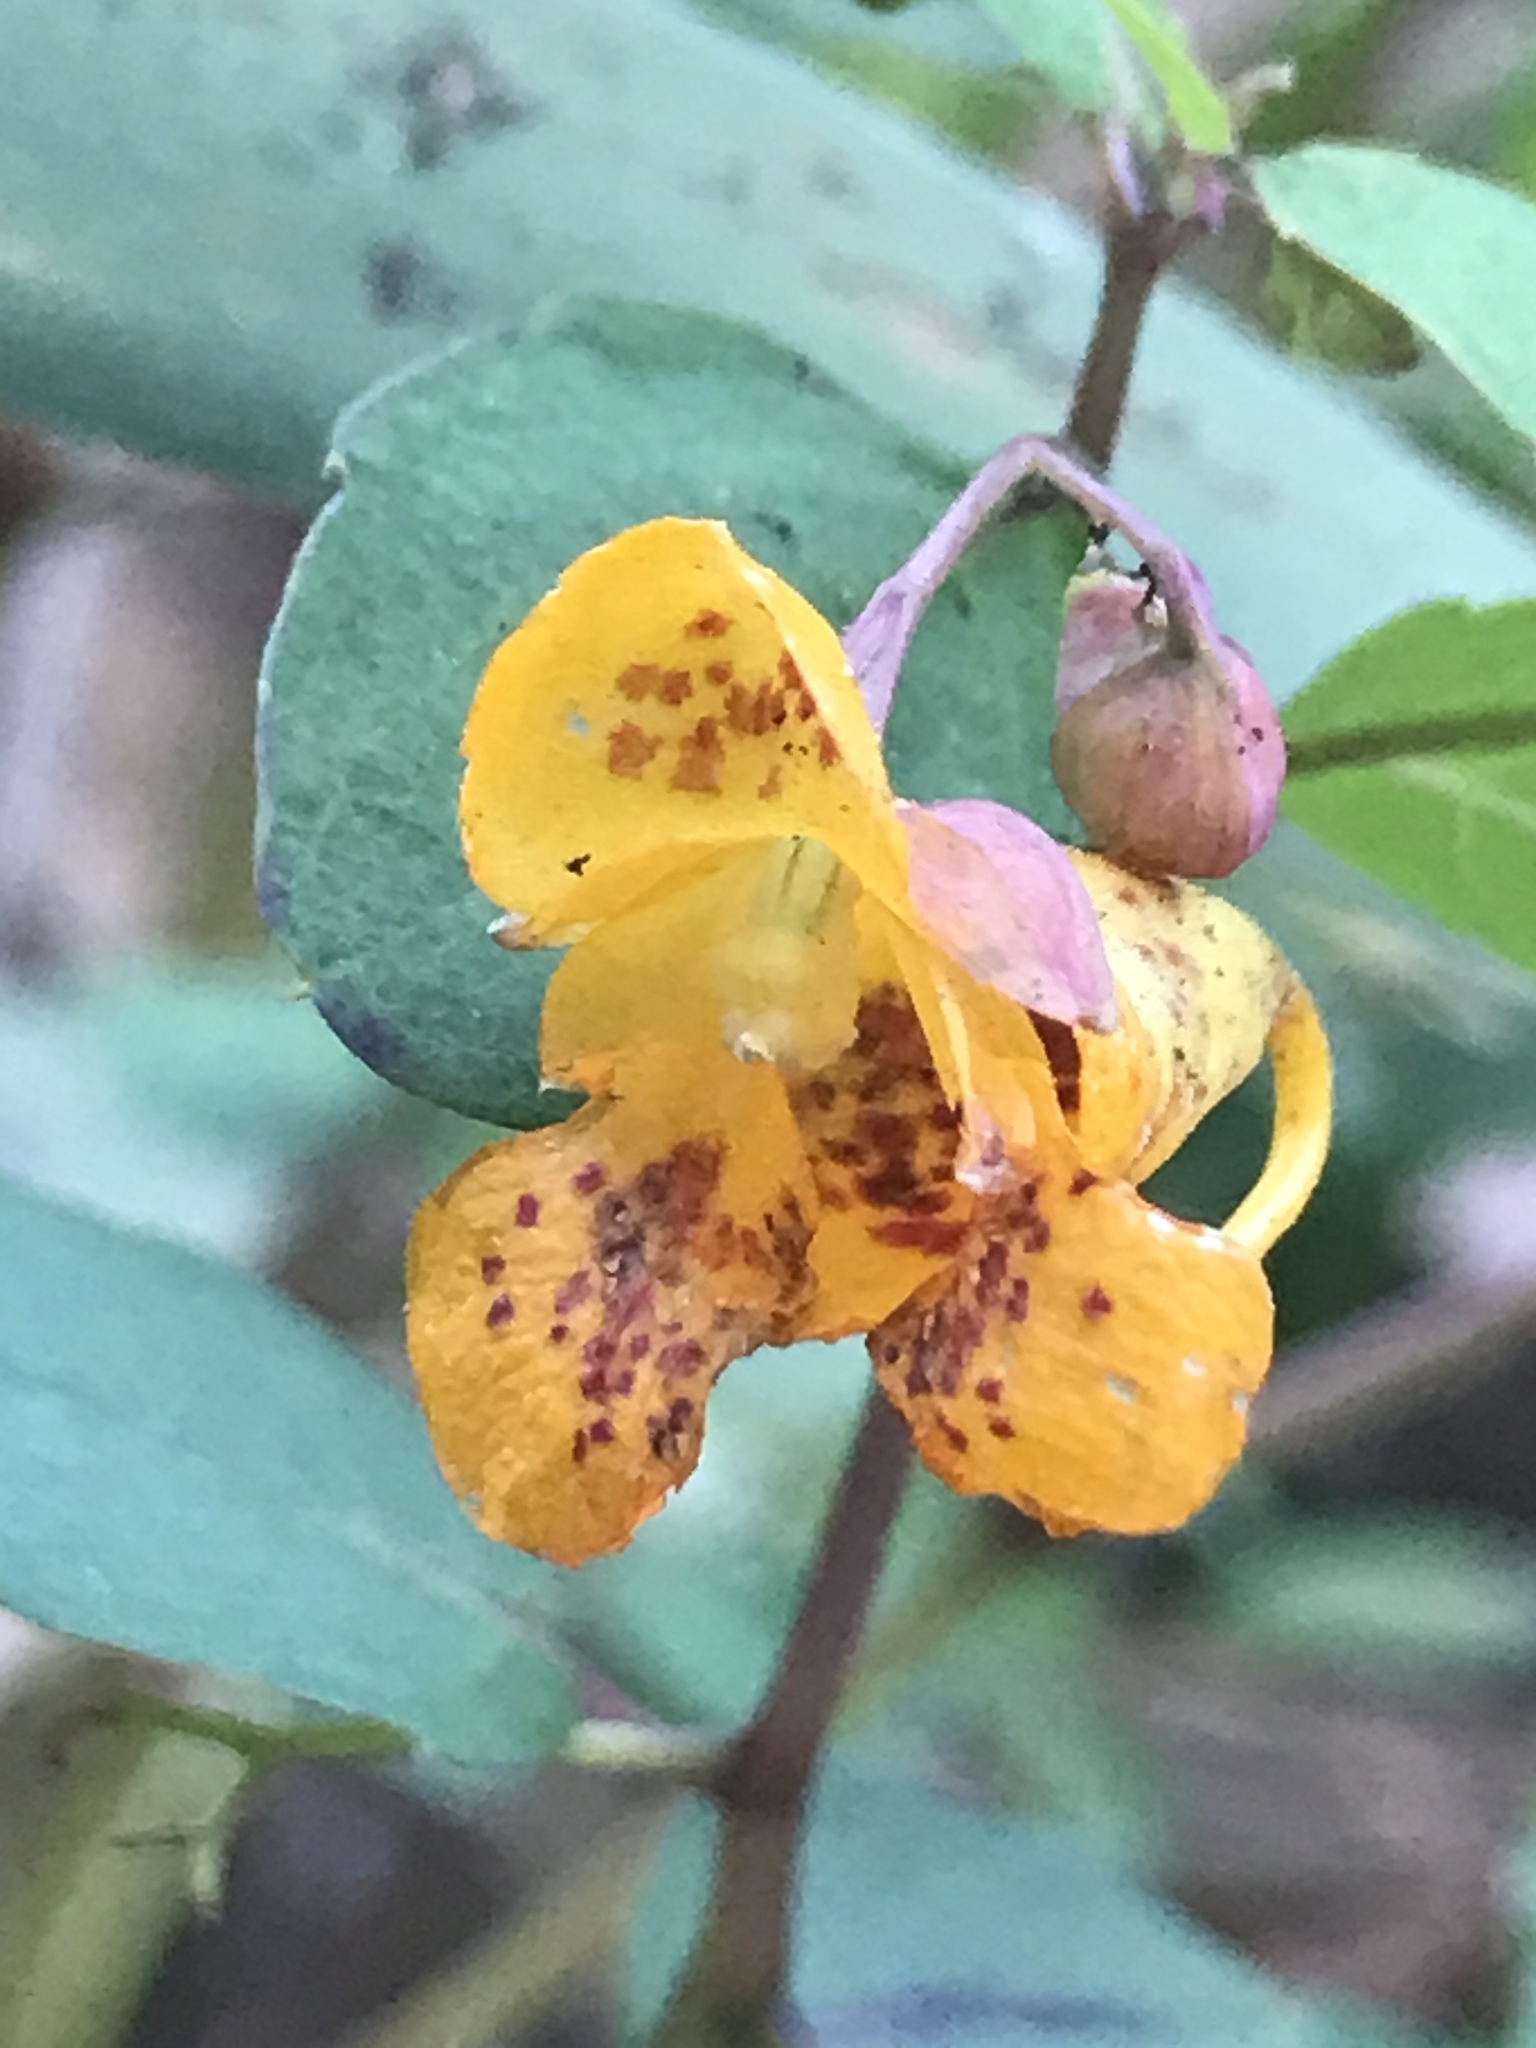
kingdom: Plantae
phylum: Tracheophyta
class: Magnoliopsida
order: Ericales
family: Balsaminaceae
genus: Impatiens
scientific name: Impatiens capensis
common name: Orange balsam
